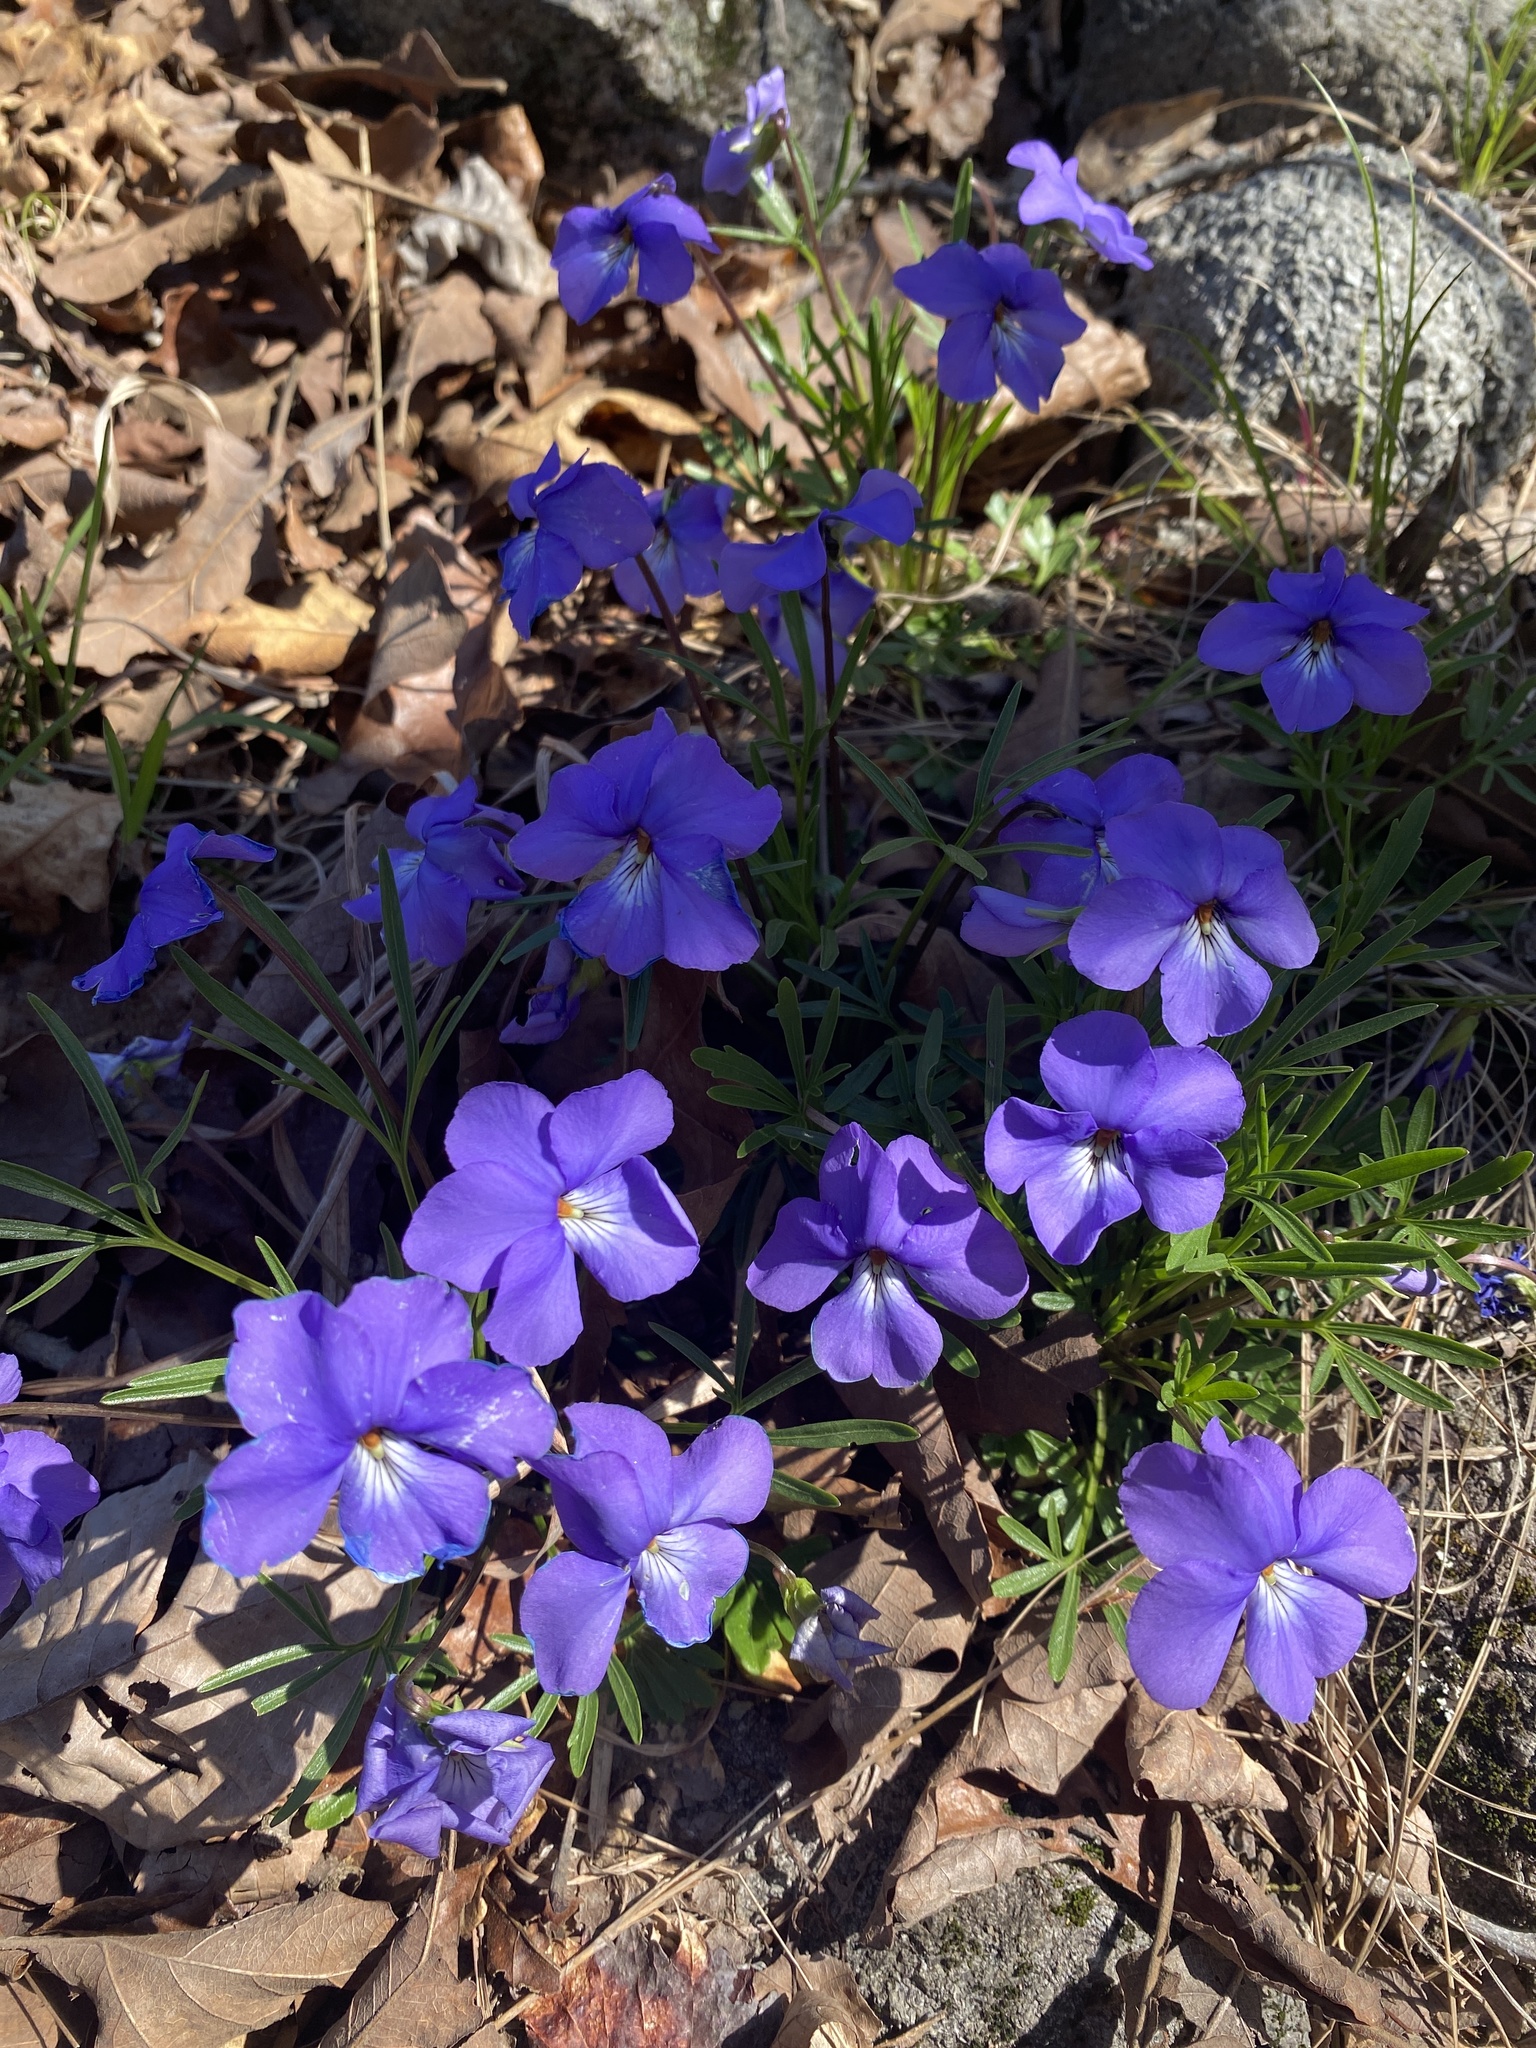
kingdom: Plantae
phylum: Tracheophyta
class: Magnoliopsida
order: Malpighiales
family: Violaceae
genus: Viola
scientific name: Viola pedata
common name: Pansy violet
